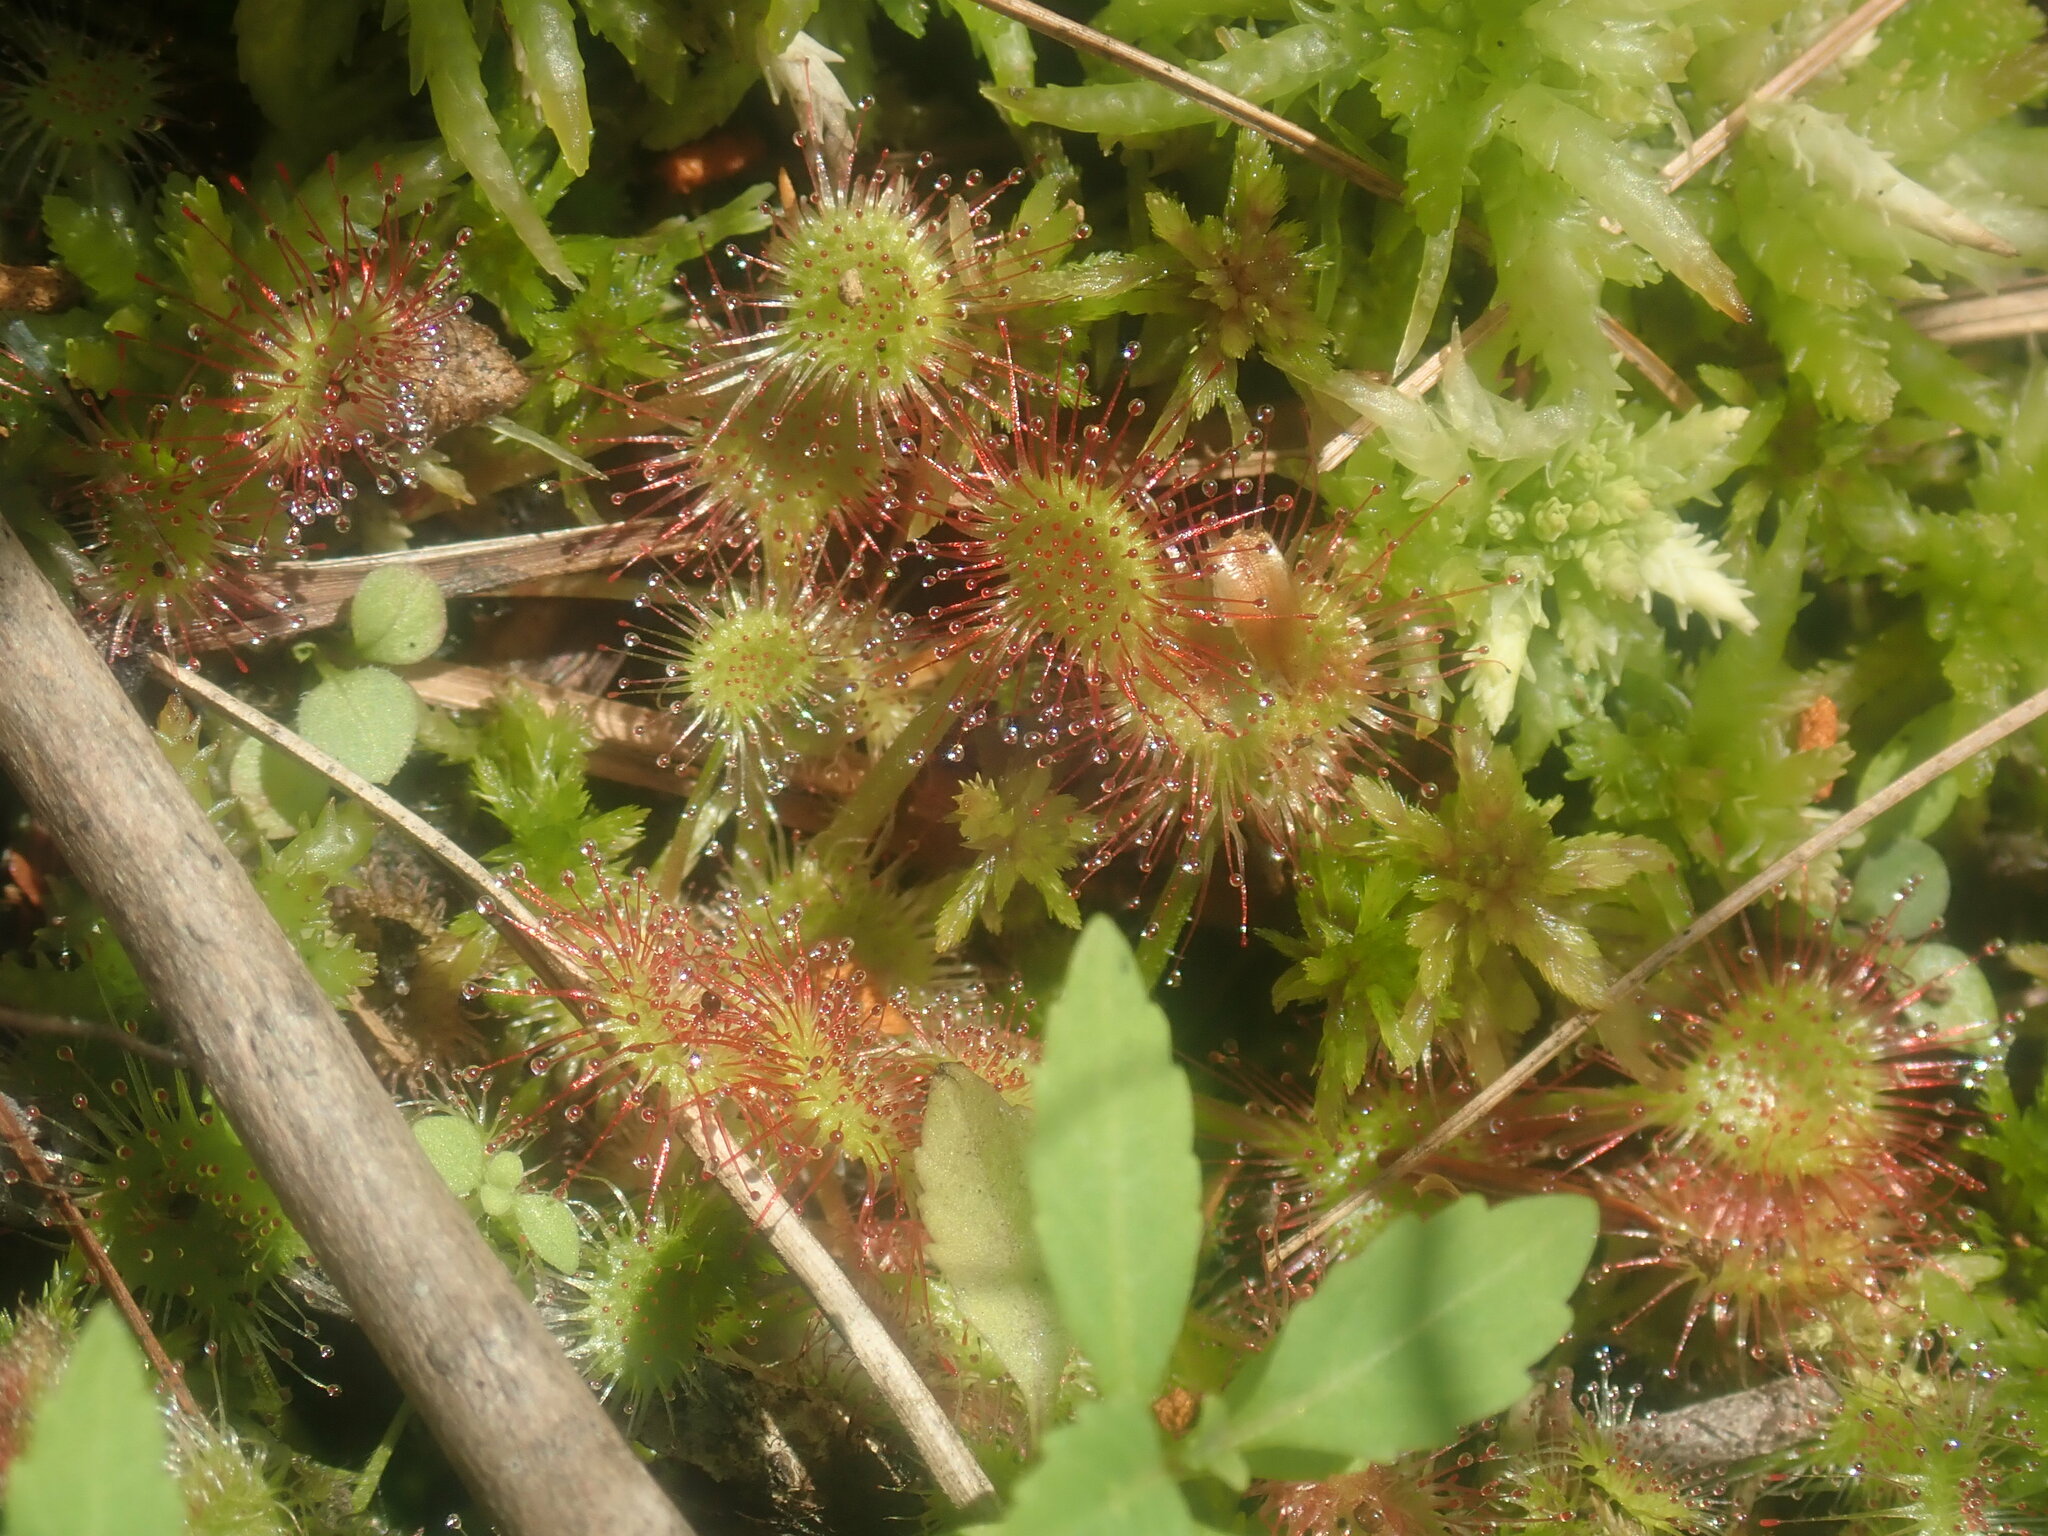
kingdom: Plantae
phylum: Tracheophyta
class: Magnoliopsida
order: Caryophyllales
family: Droseraceae
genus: Drosera
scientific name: Drosera rotundifolia
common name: Round-leaved sundew
